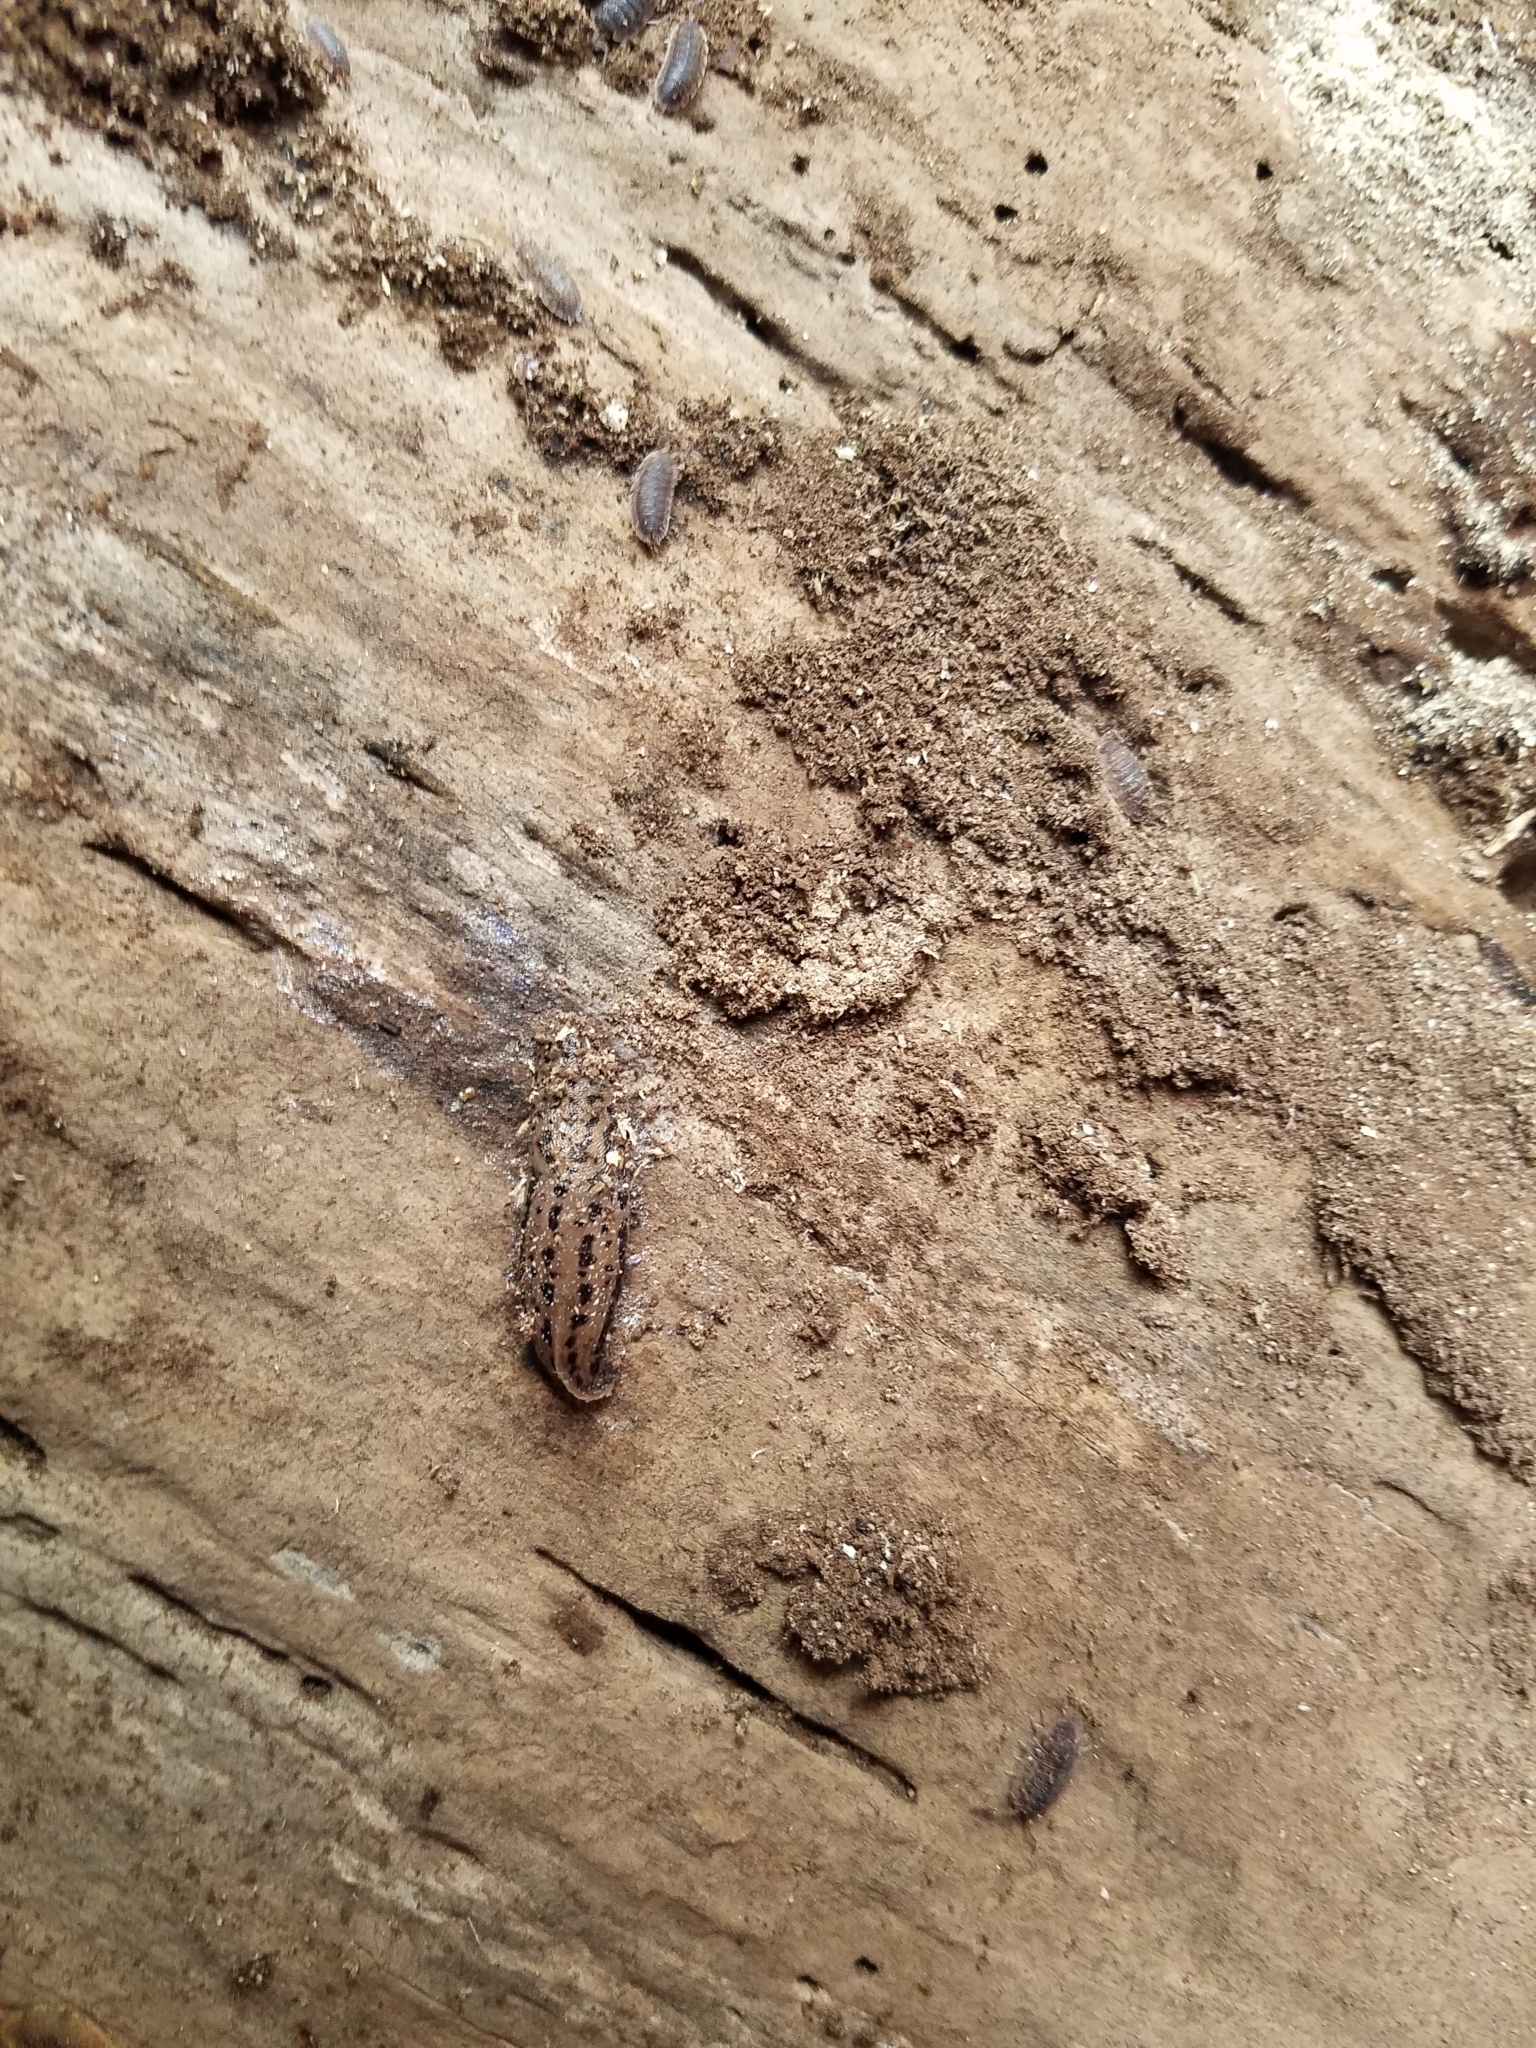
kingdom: Animalia
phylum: Mollusca
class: Gastropoda
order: Stylommatophora
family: Limacidae
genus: Limax
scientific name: Limax maximus
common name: Great grey slug
